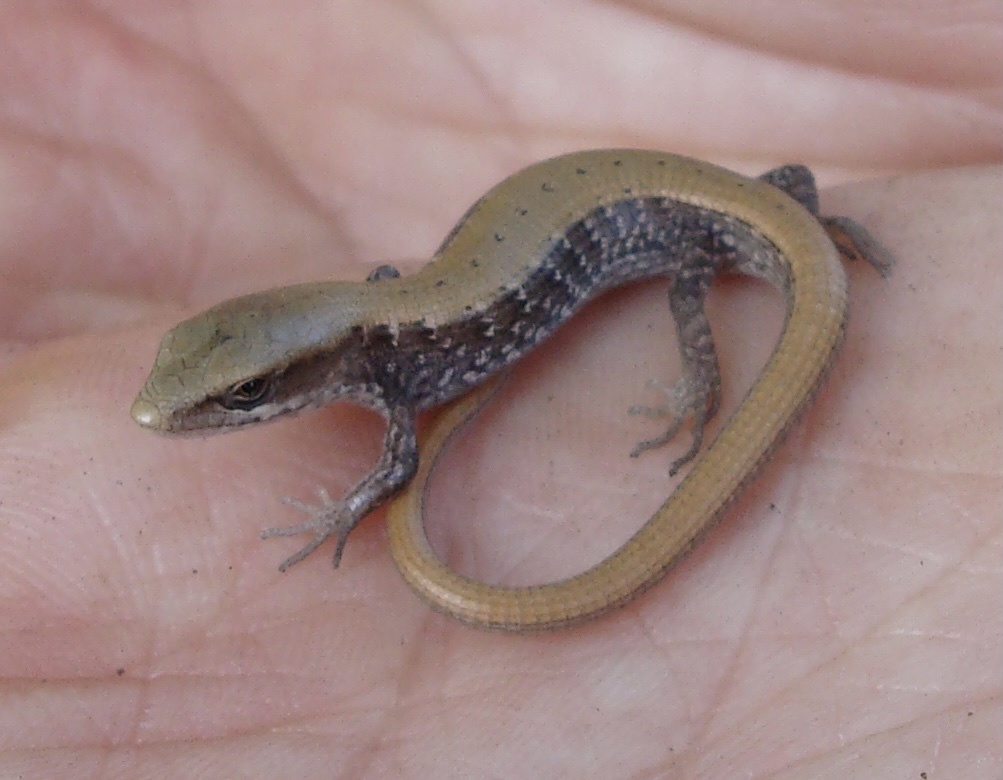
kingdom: Animalia
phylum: Chordata
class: Squamata
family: Anguidae
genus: Elgaria
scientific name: Elgaria multicarinata
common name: Southern alligator lizard
